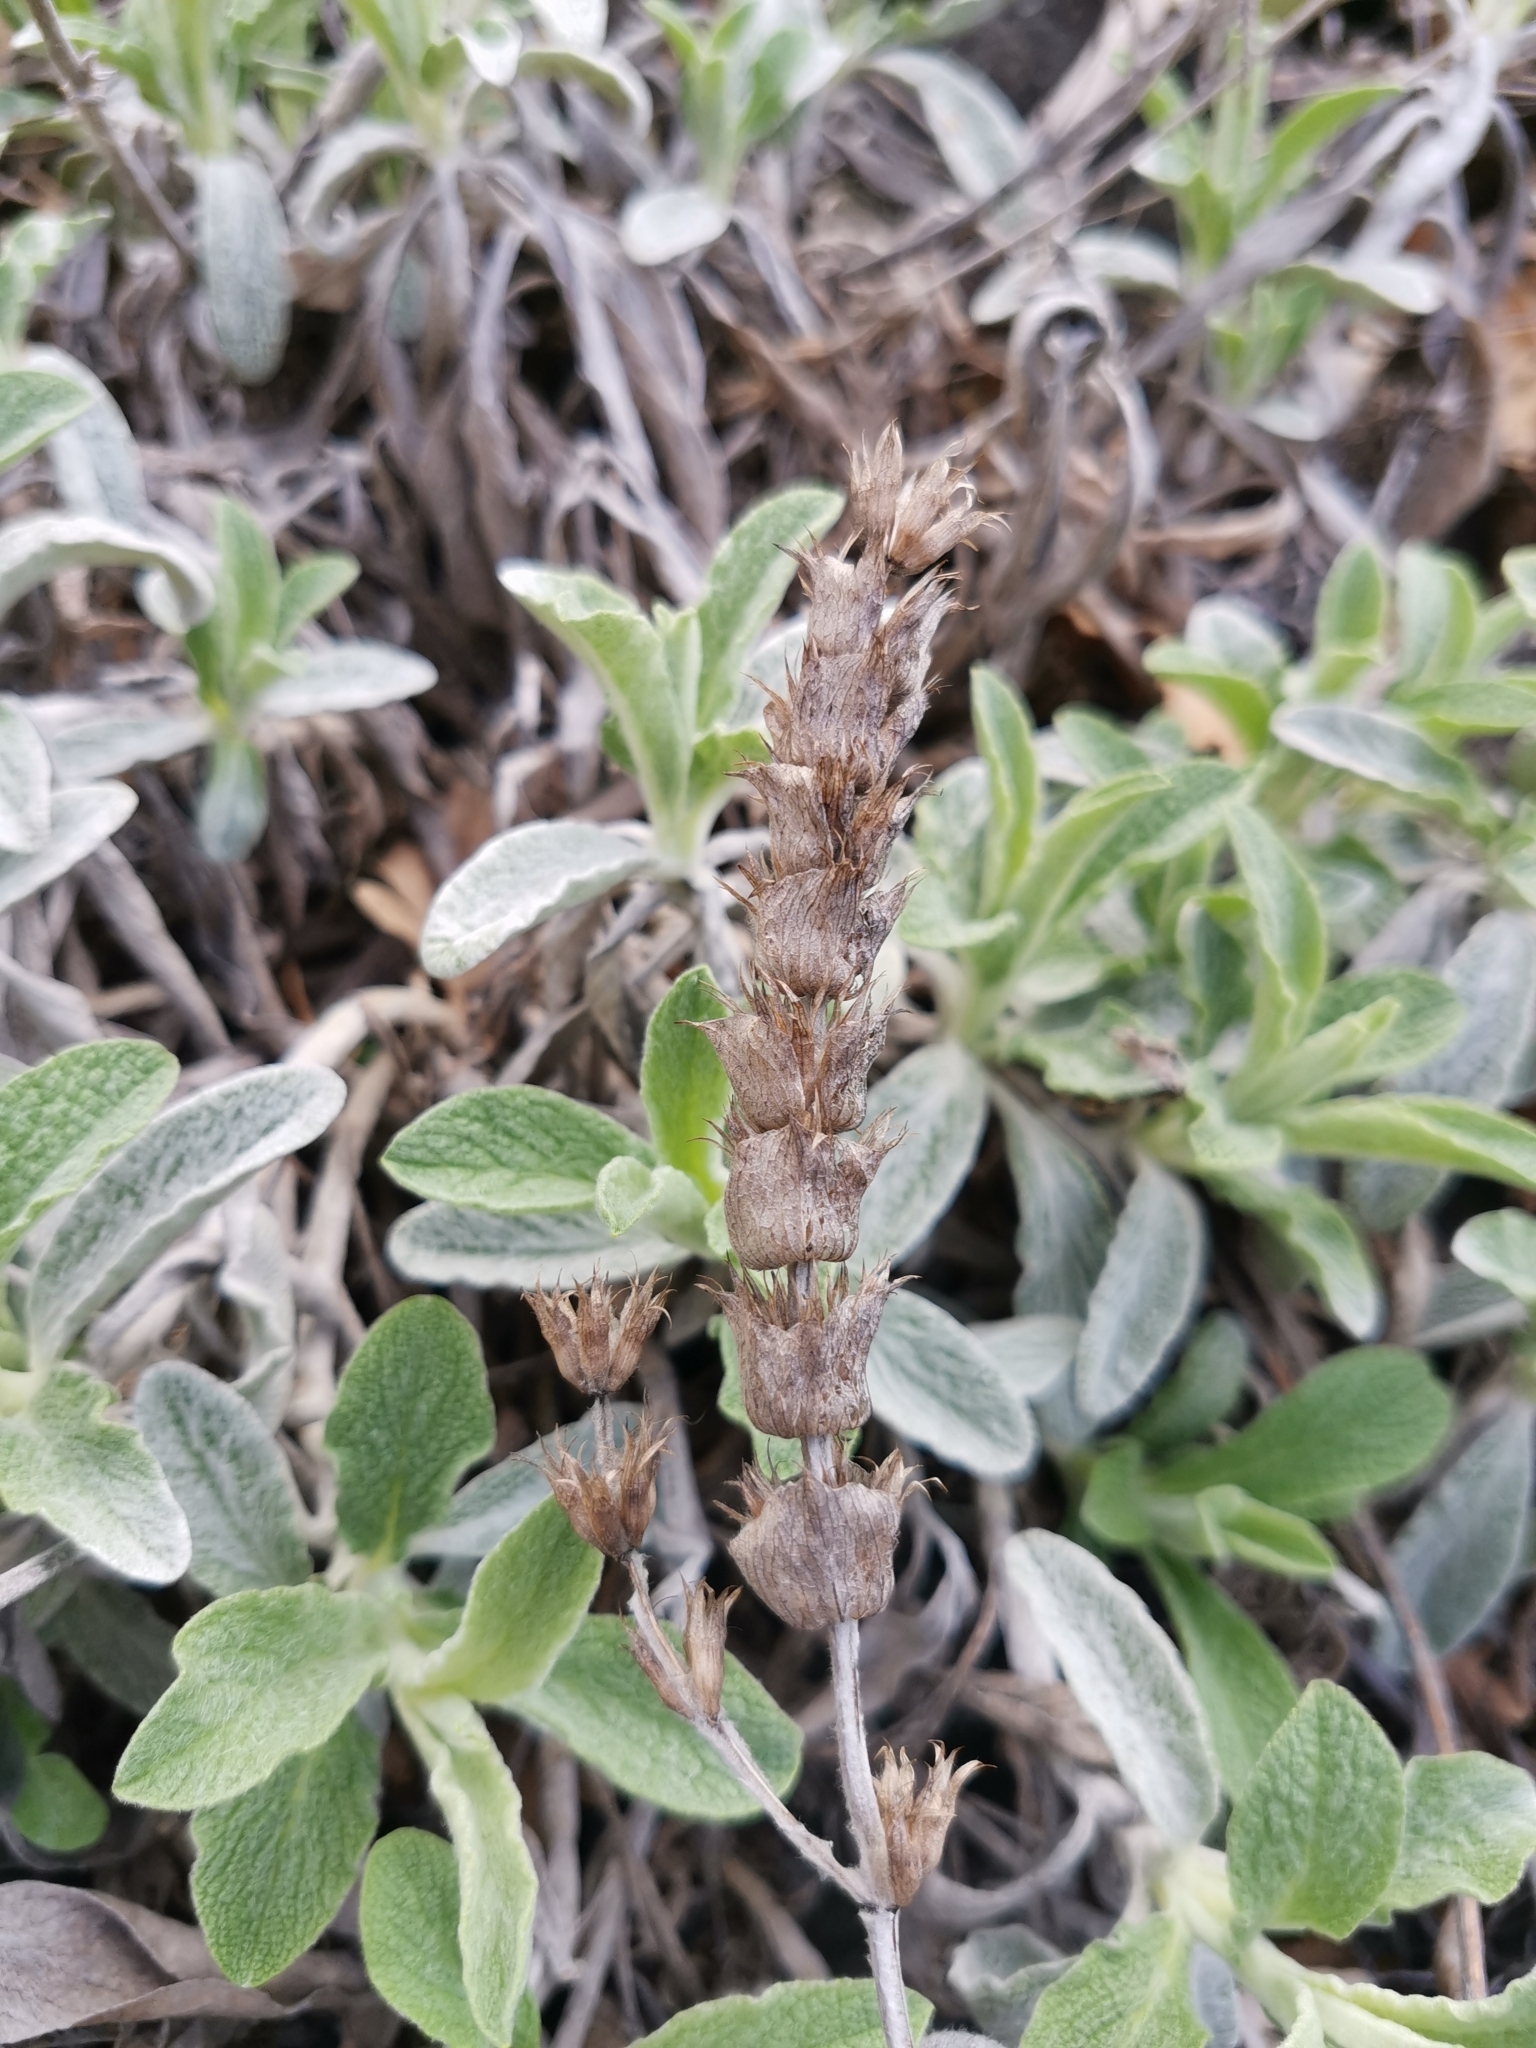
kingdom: Plantae
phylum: Tracheophyta
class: Magnoliopsida
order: Lamiales
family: Lamiaceae
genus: Sideritis
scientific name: Sideritis euxina
